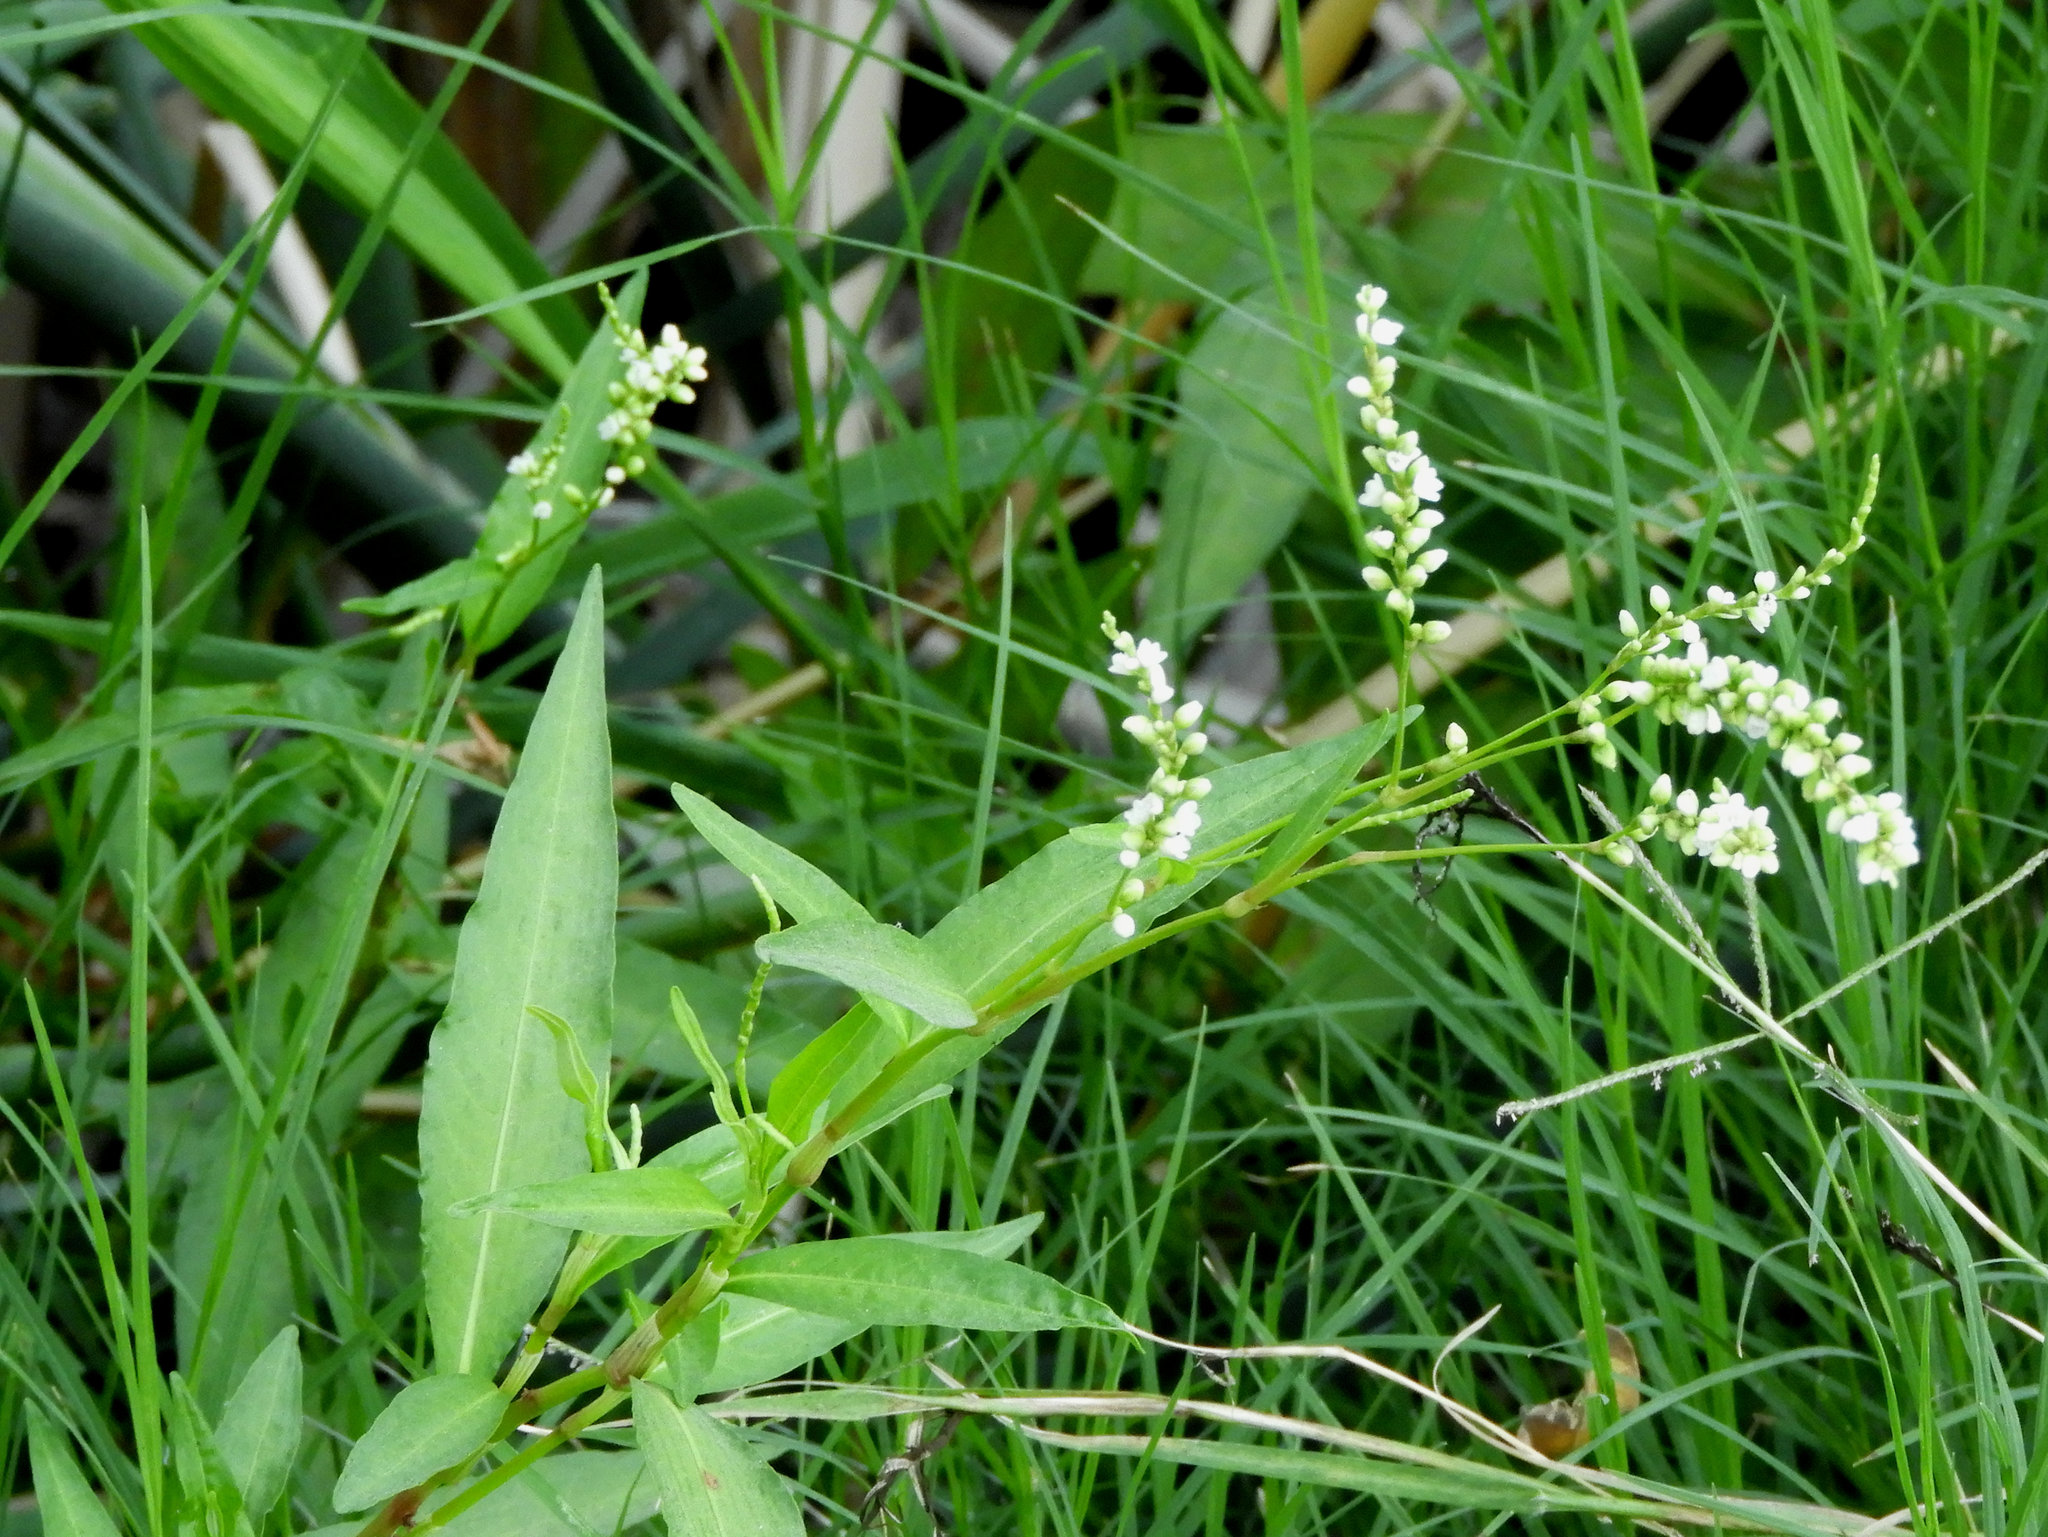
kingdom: Plantae
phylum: Tracheophyta
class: Magnoliopsida
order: Caryophyllales
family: Polygonaceae
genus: Persicaria
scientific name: Persicaria lapathifolia
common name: Curlytop knotweed
